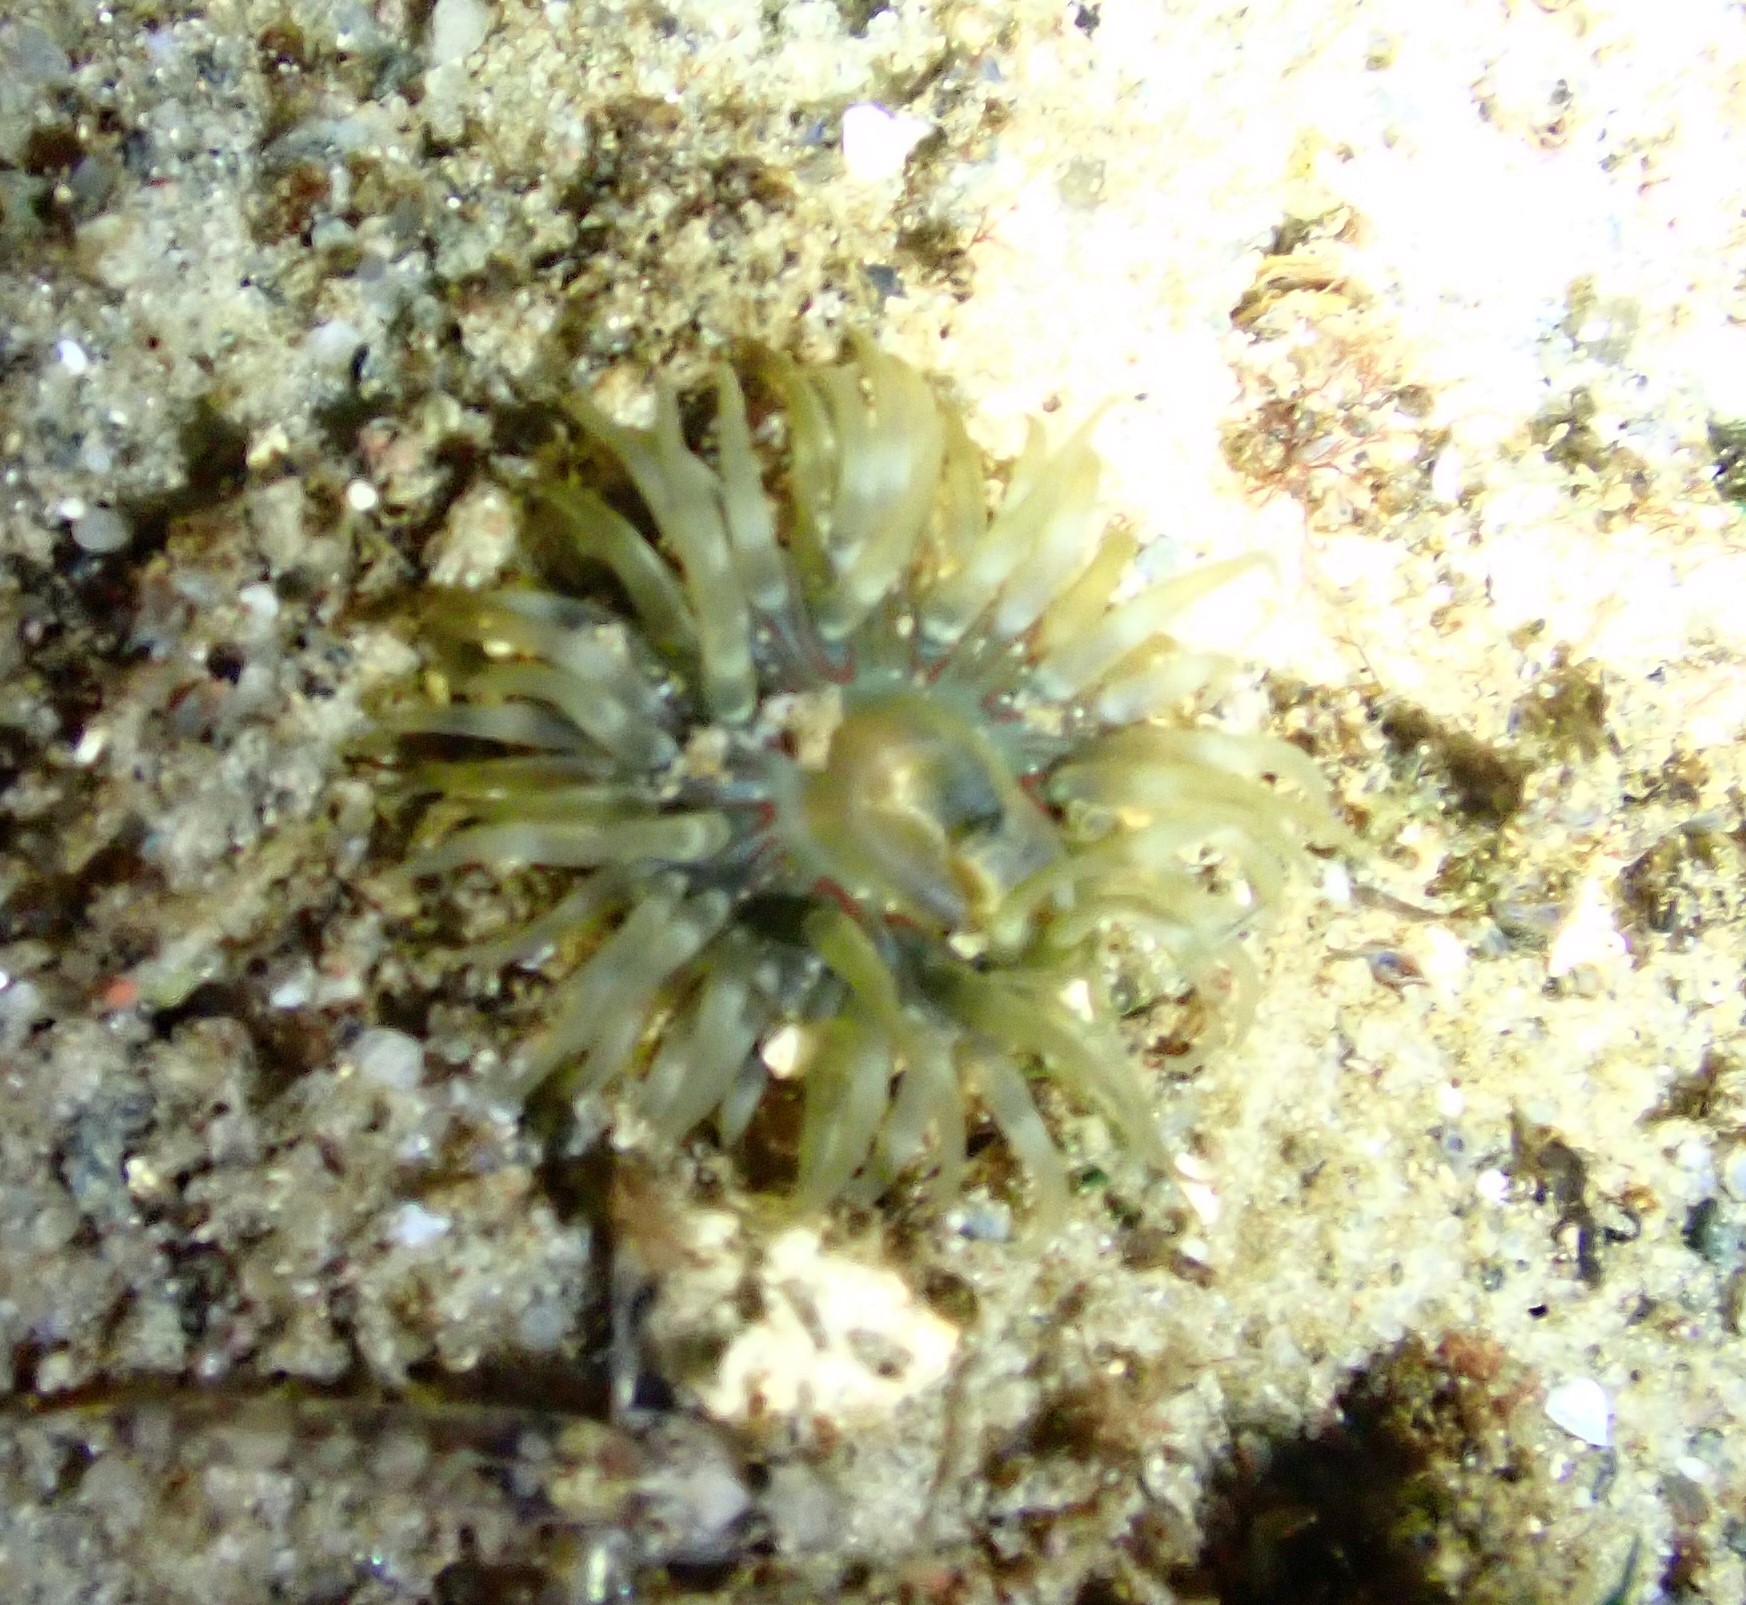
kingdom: Animalia
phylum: Cnidaria
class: Anthozoa
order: Actiniaria
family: Actiniidae
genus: Urticina
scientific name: Urticina felina
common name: Dahlia anemone
